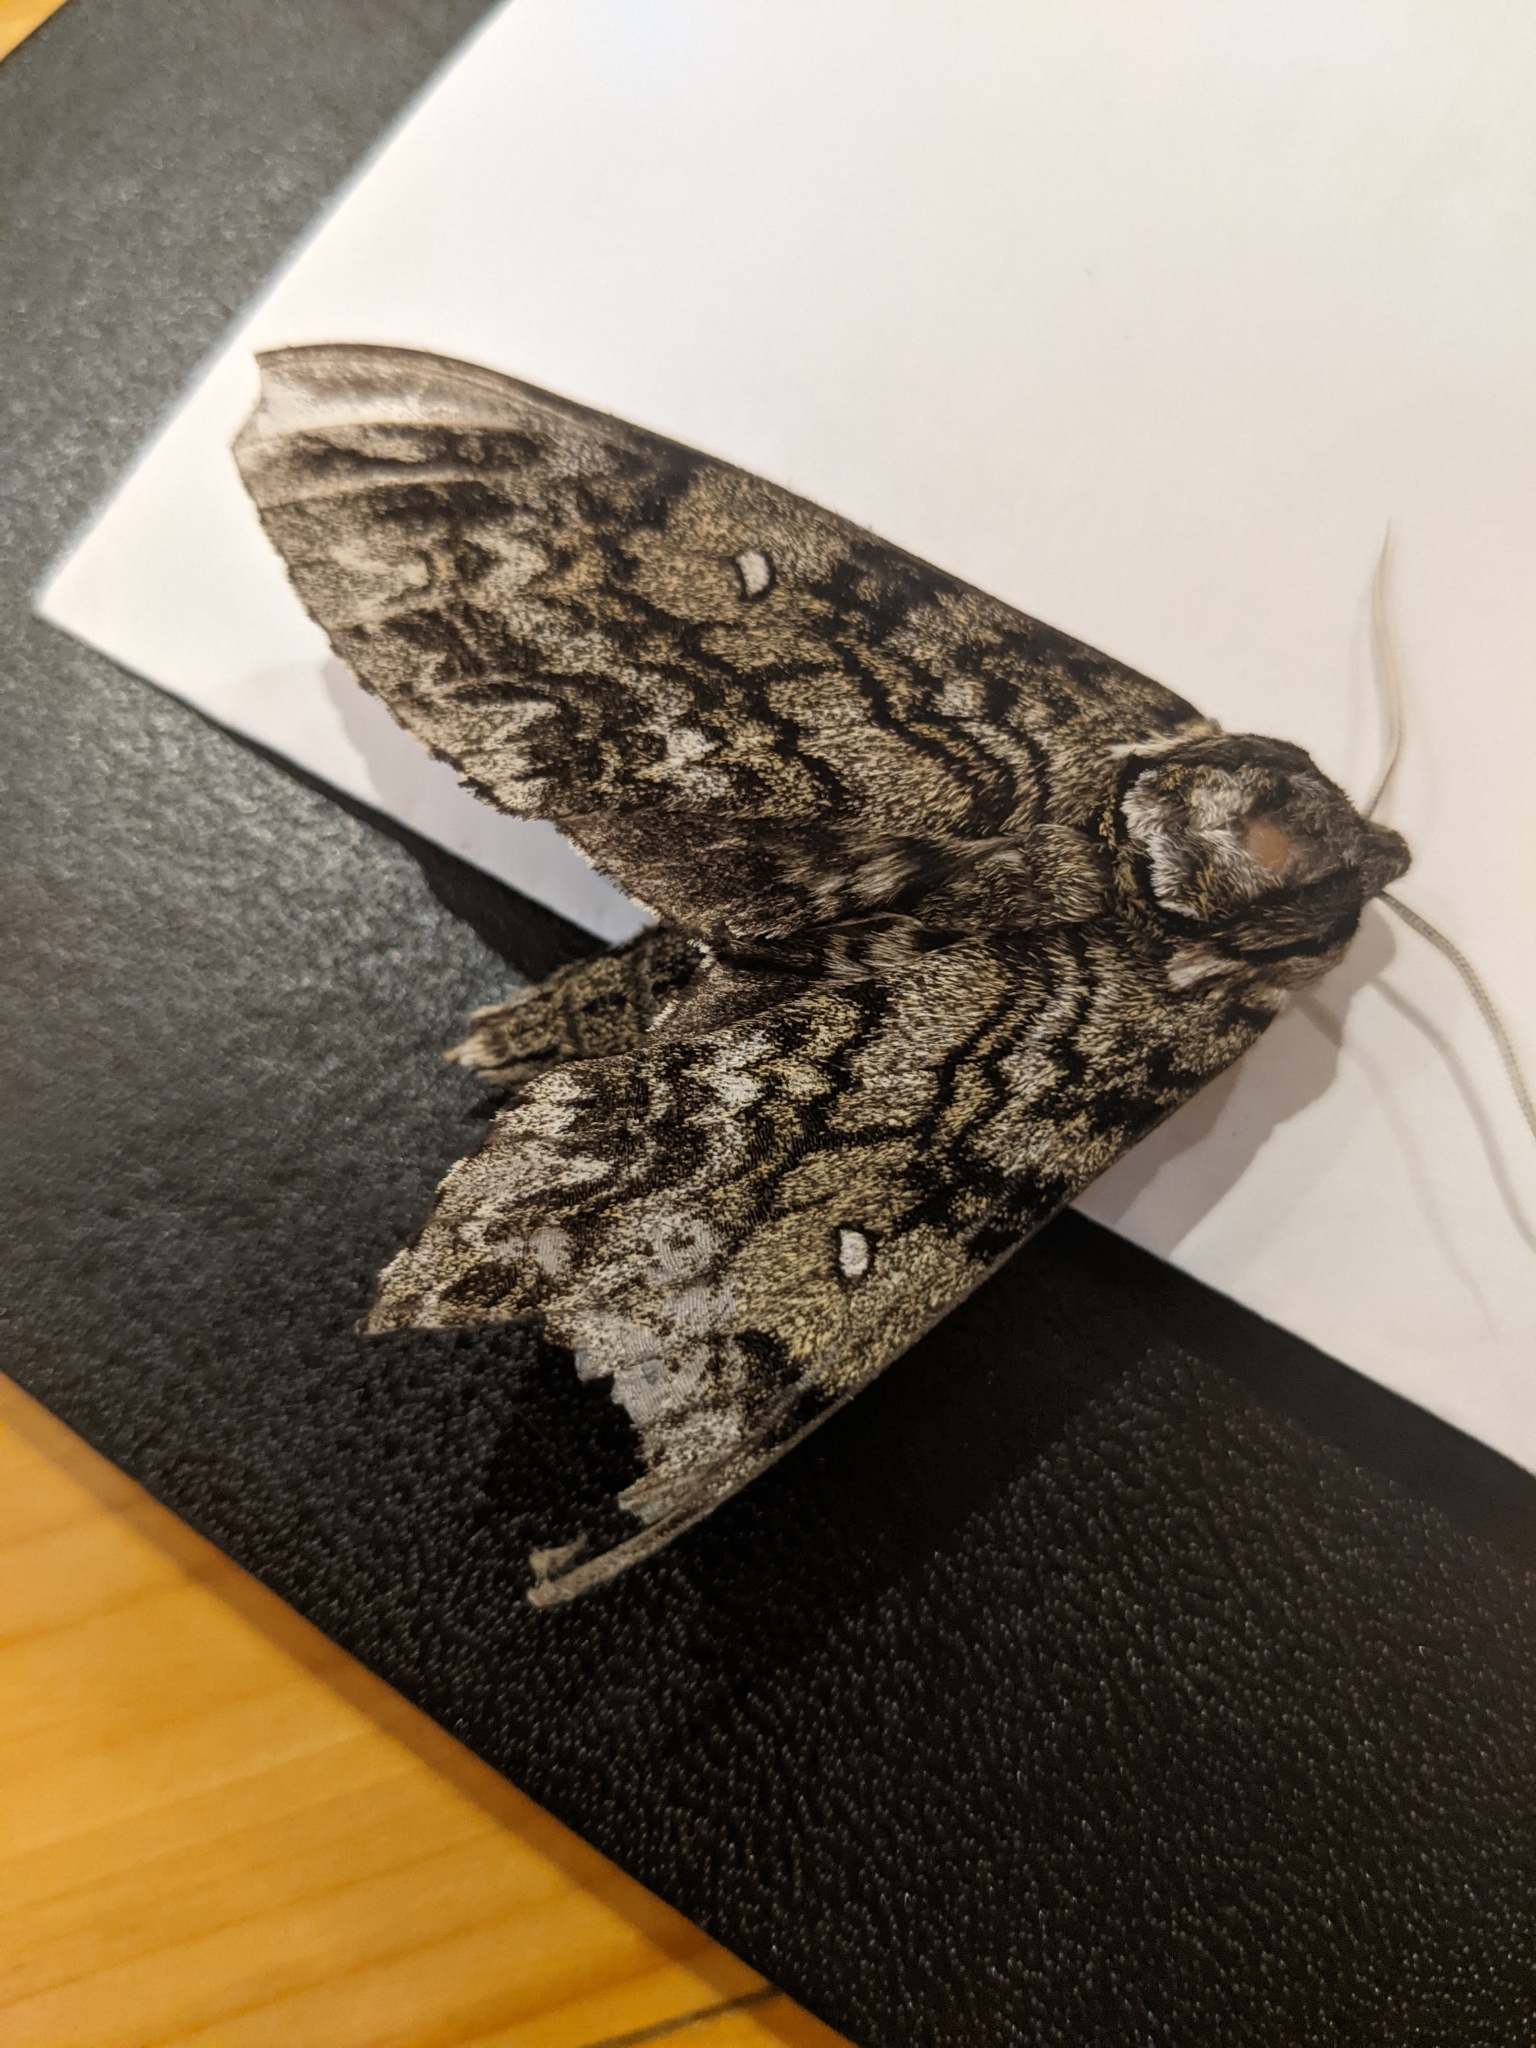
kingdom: Animalia
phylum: Arthropoda
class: Insecta
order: Lepidoptera
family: Sphingidae
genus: Ceratomia
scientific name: Ceratomia undulosa
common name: Waved sphinx
